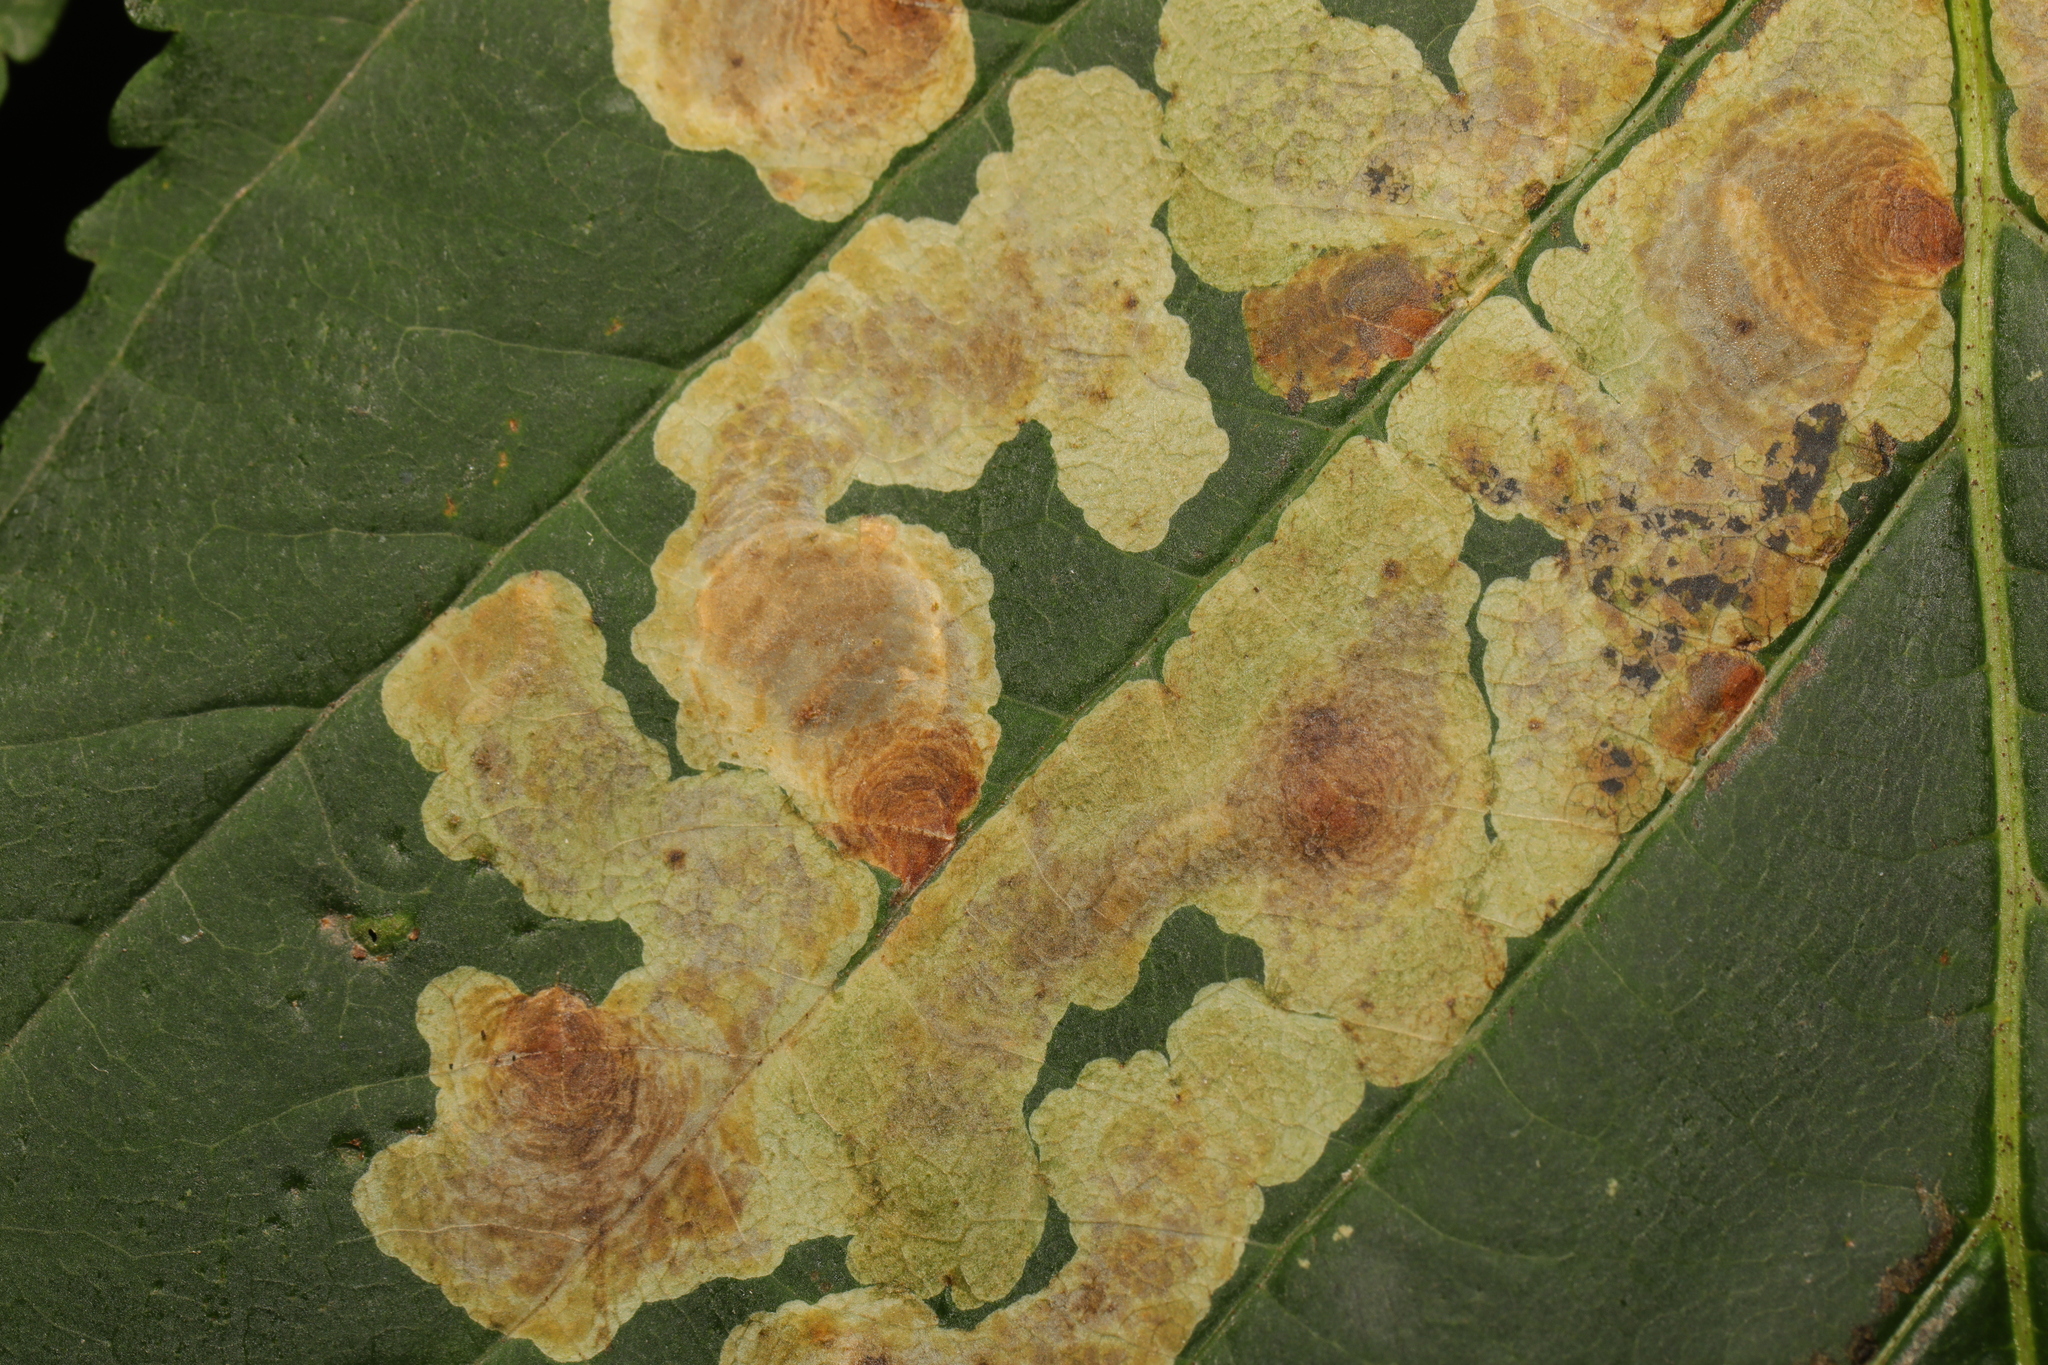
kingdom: Animalia
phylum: Arthropoda
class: Insecta
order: Lepidoptera
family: Gracillariidae
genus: Cameraria
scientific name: Cameraria ohridella
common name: Horse-chestnut leaf-miner
